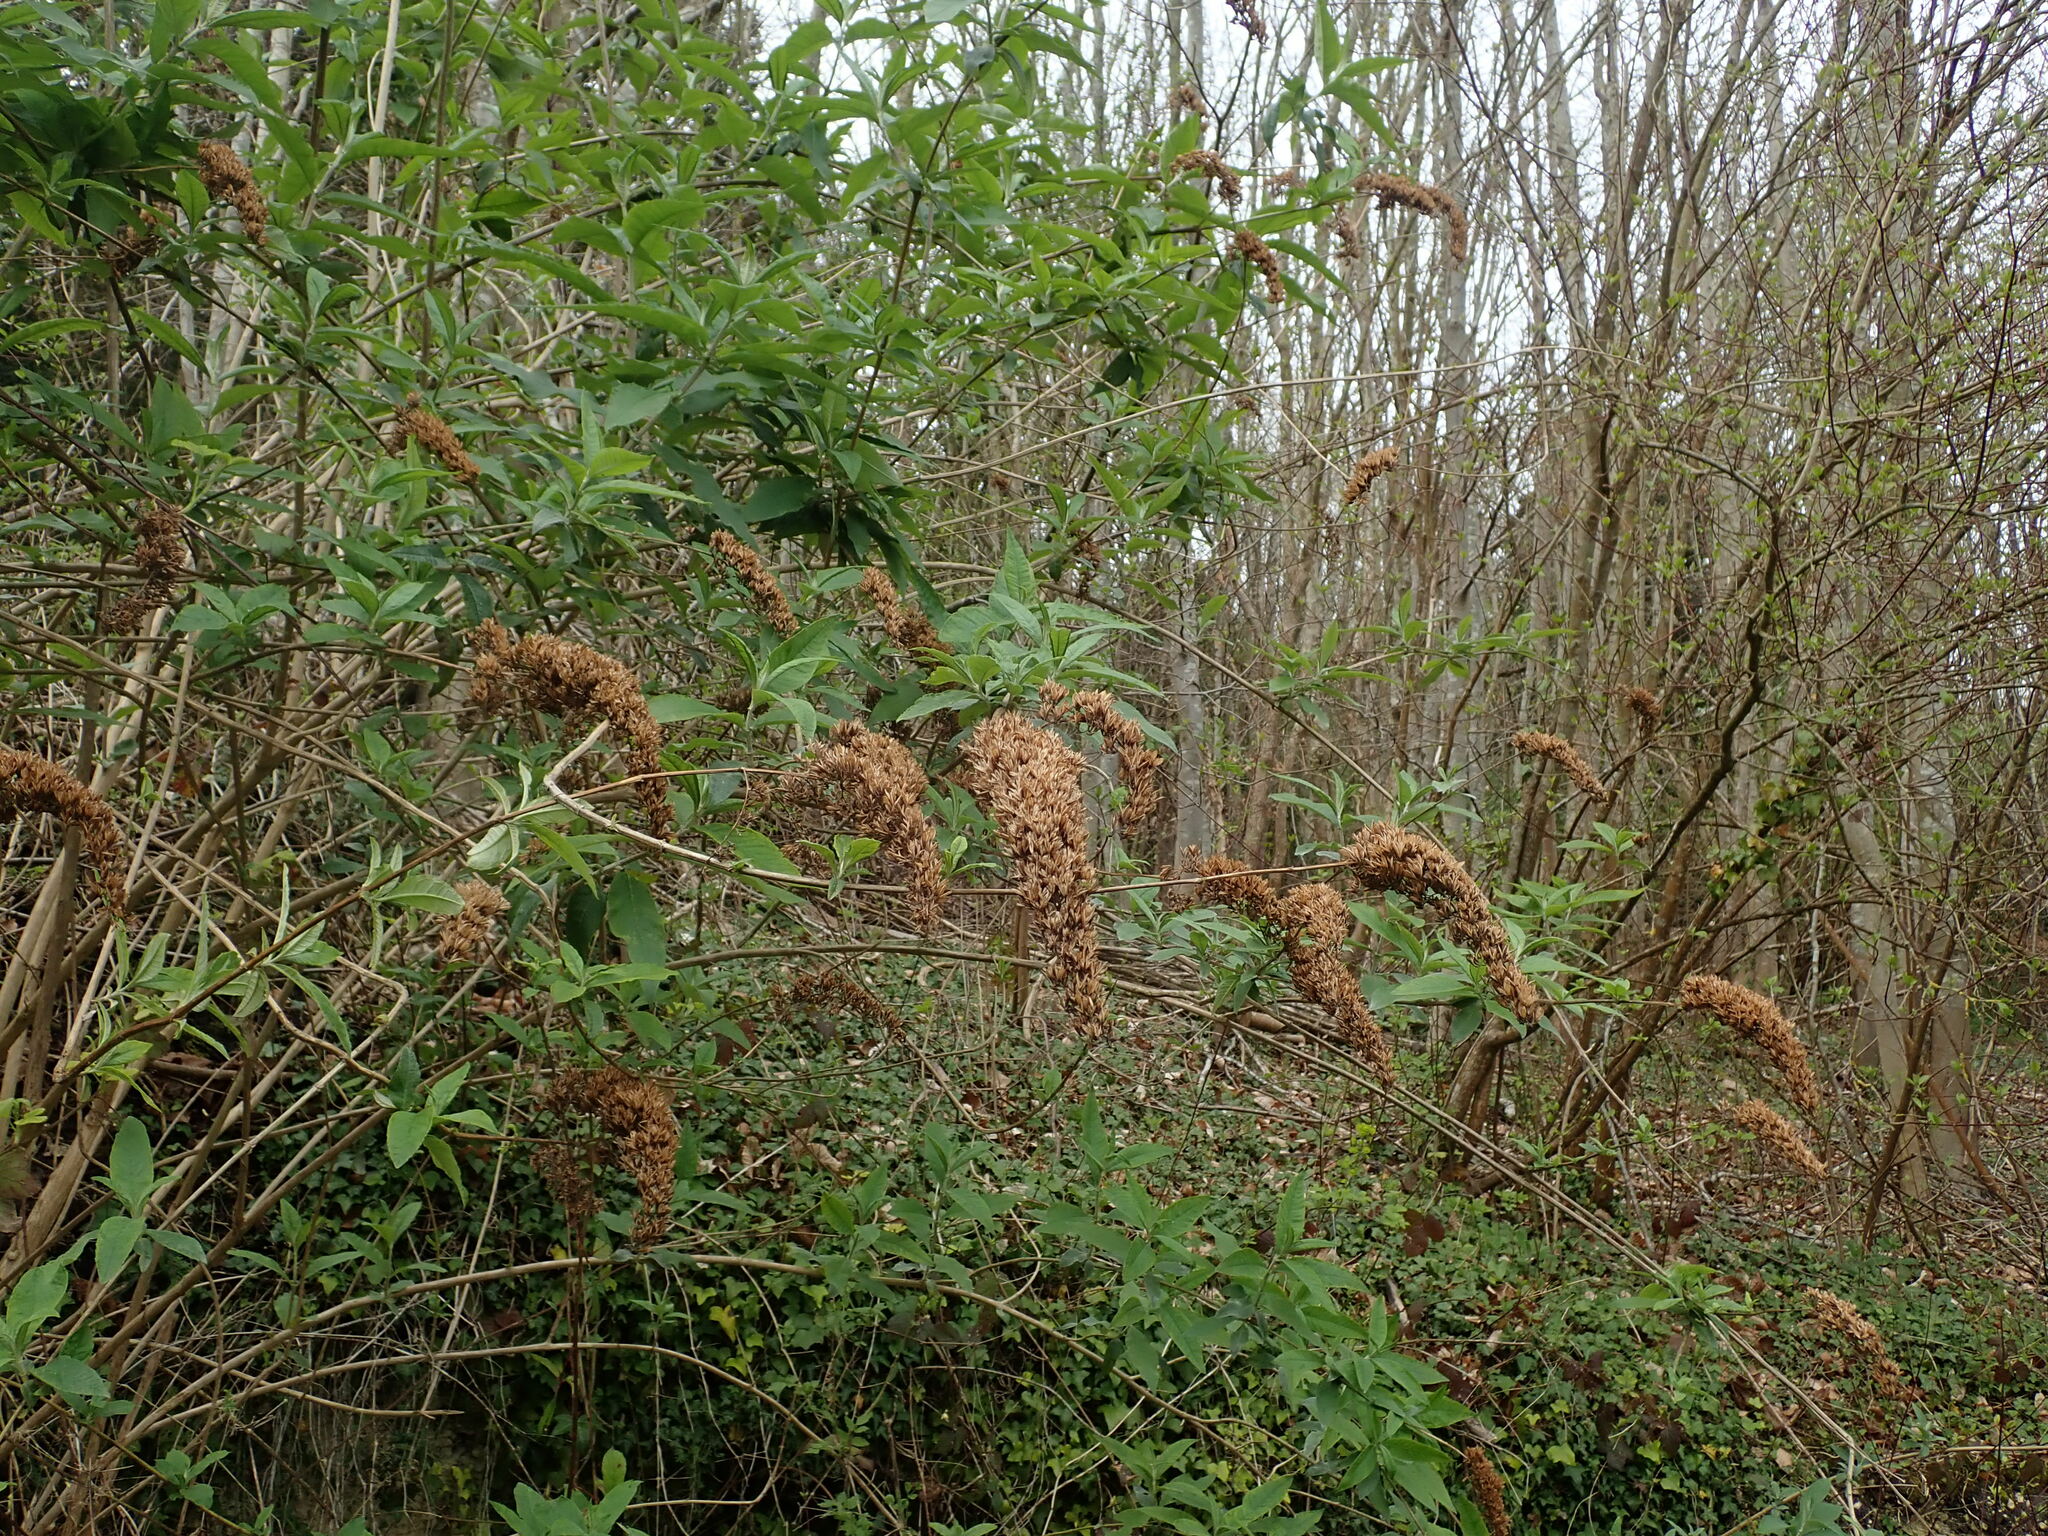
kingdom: Plantae
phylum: Tracheophyta
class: Magnoliopsida
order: Lamiales
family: Scrophulariaceae
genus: Buddleja
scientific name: Buddleja davidii
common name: Butterfly-bush
